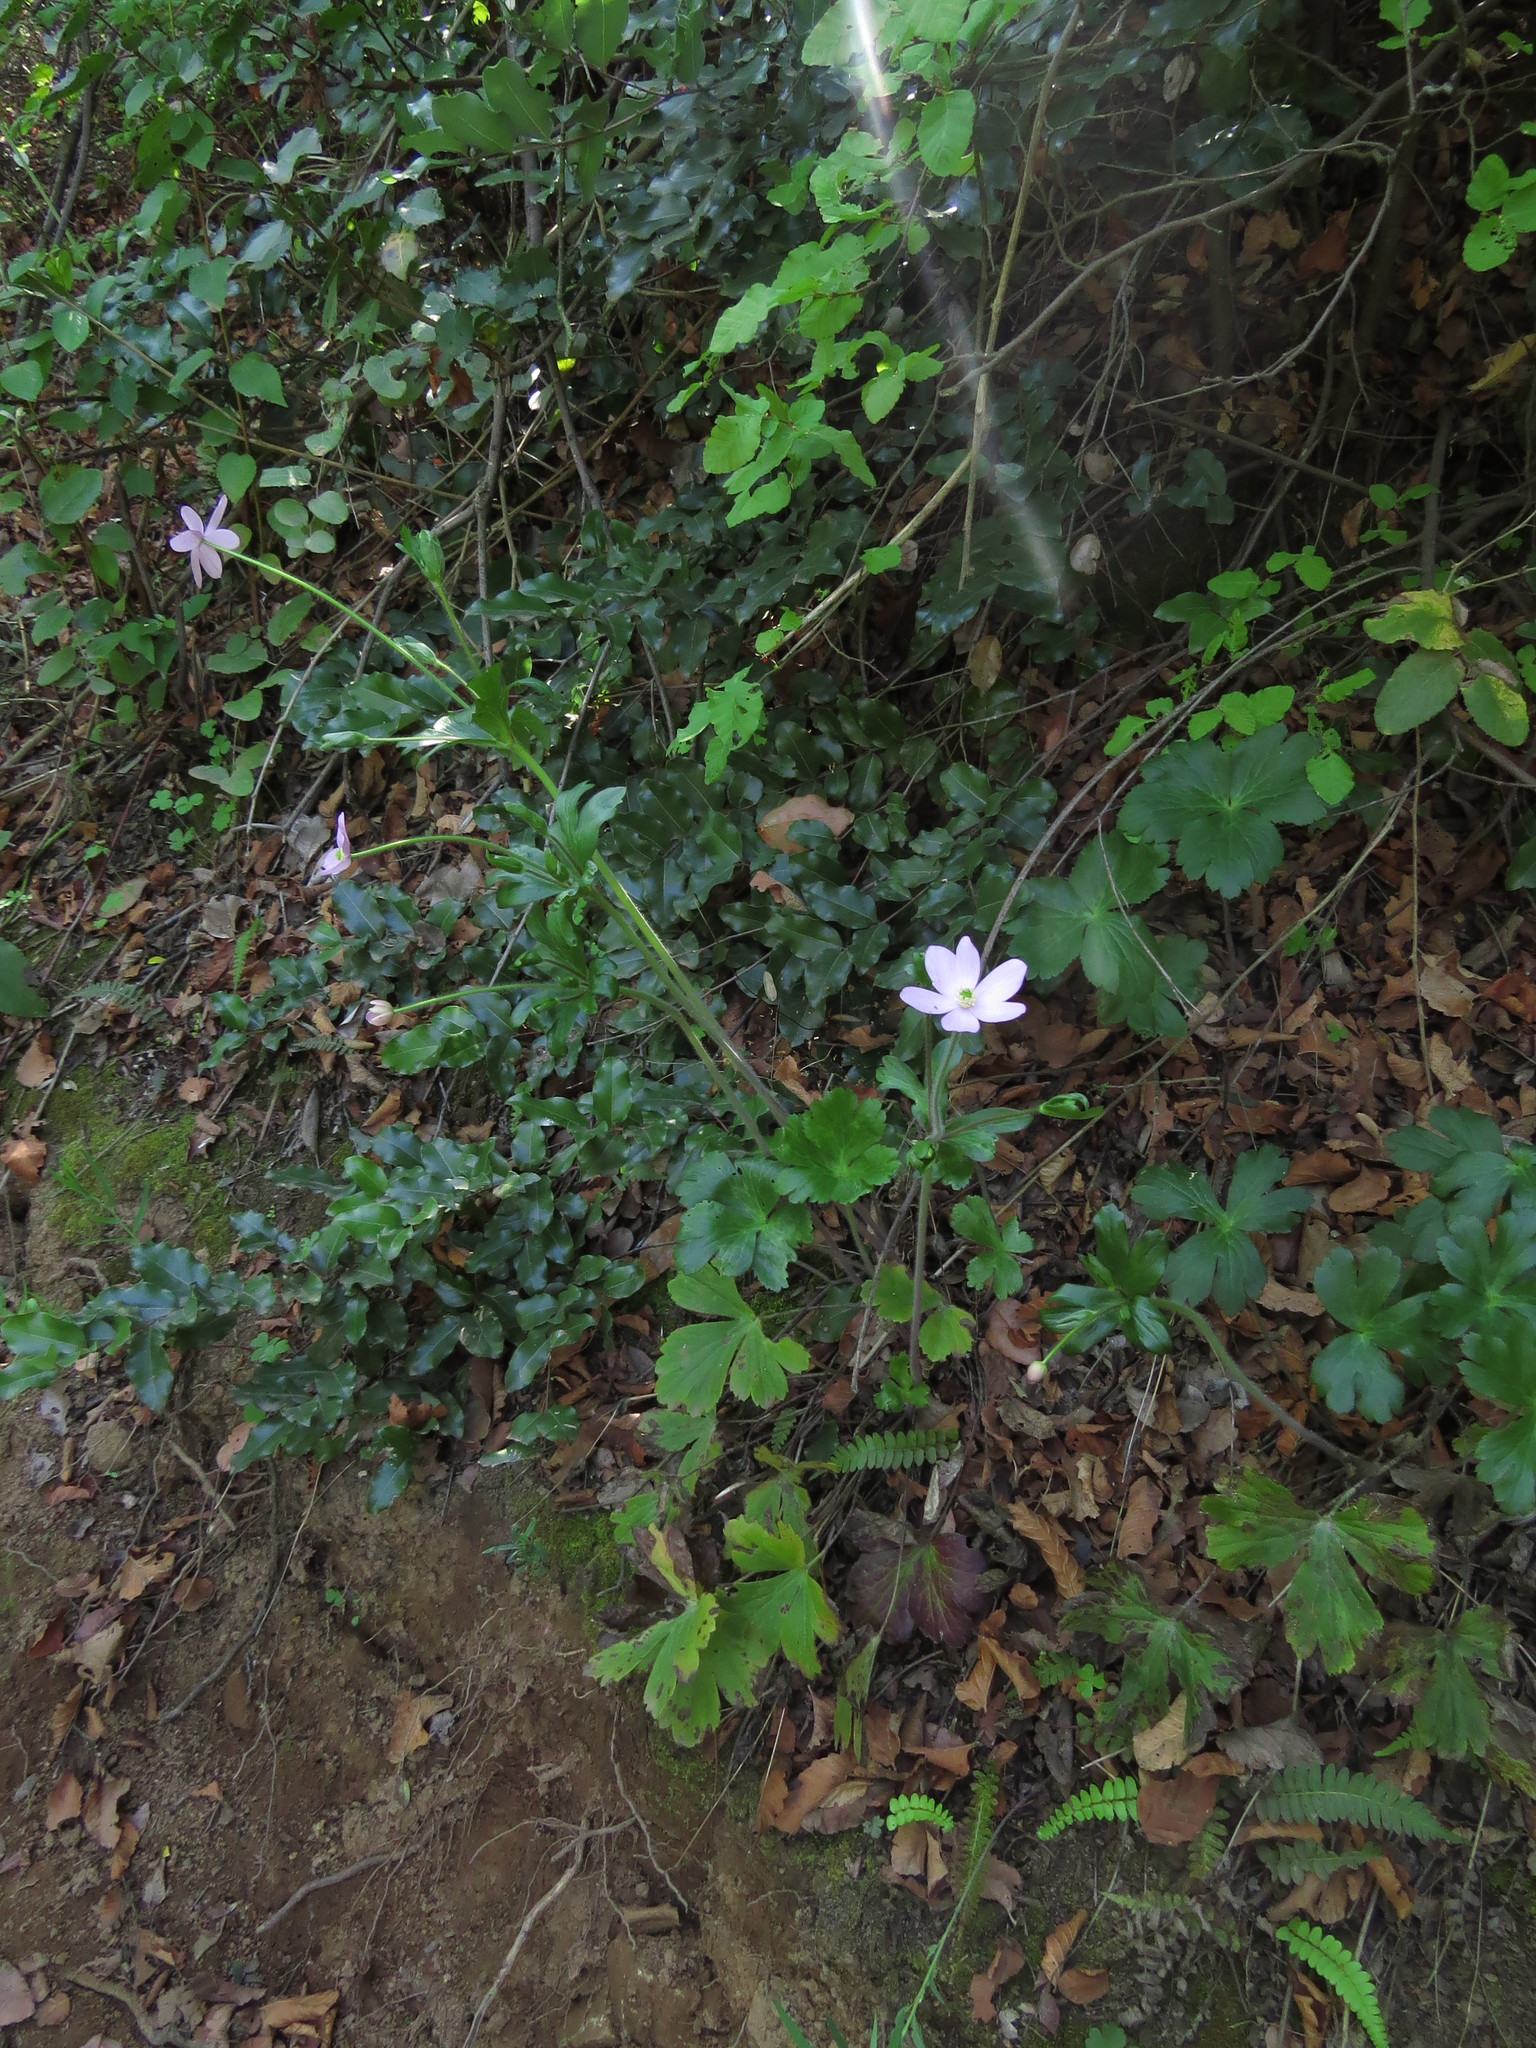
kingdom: Plantae
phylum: Tracheophyta
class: Magnoliopsida
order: Ranunculales
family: Ranunculaceae
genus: Knowltonia
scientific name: Knowltonia hootae
